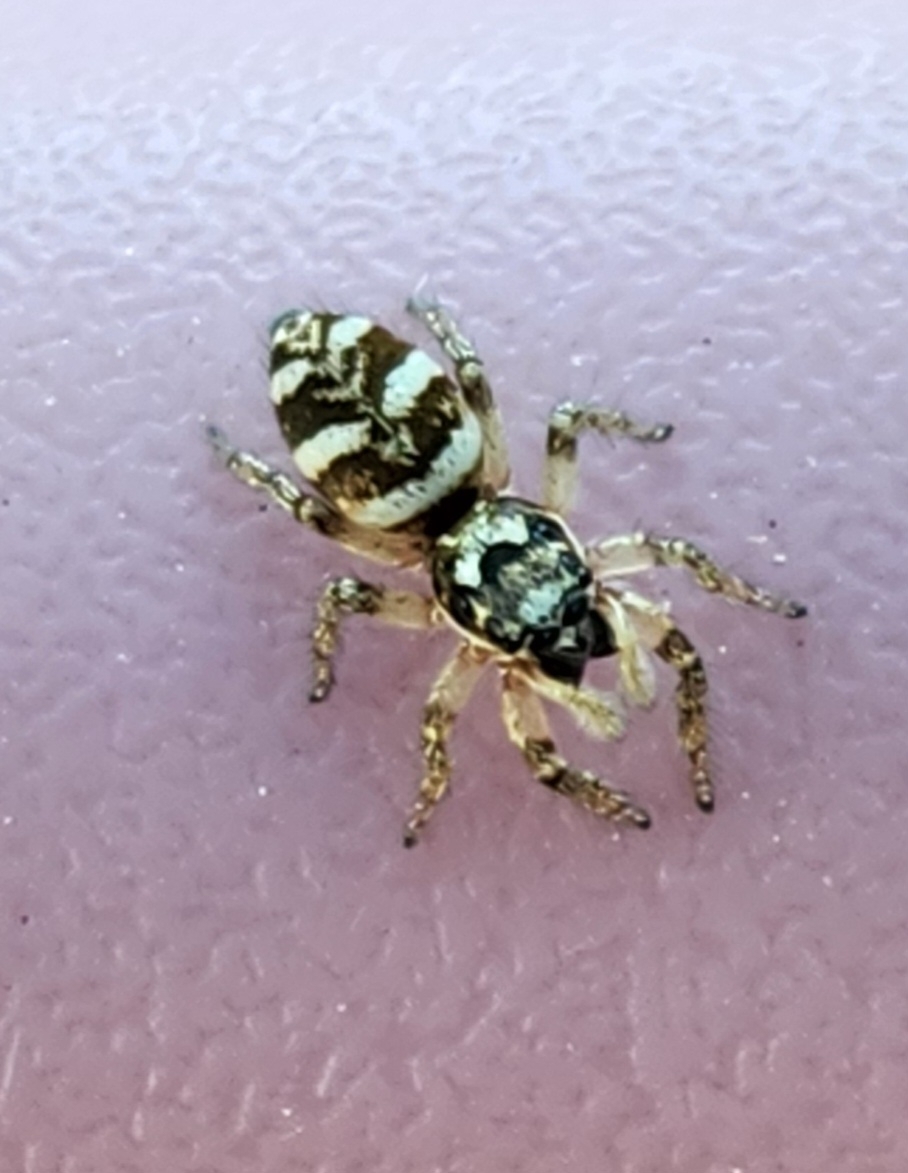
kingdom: Animalia
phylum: Arthropoda
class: Arachnida
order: Araneae
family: Salticidae
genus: Salticus
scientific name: Salticus scenicus
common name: Zebra jumper
